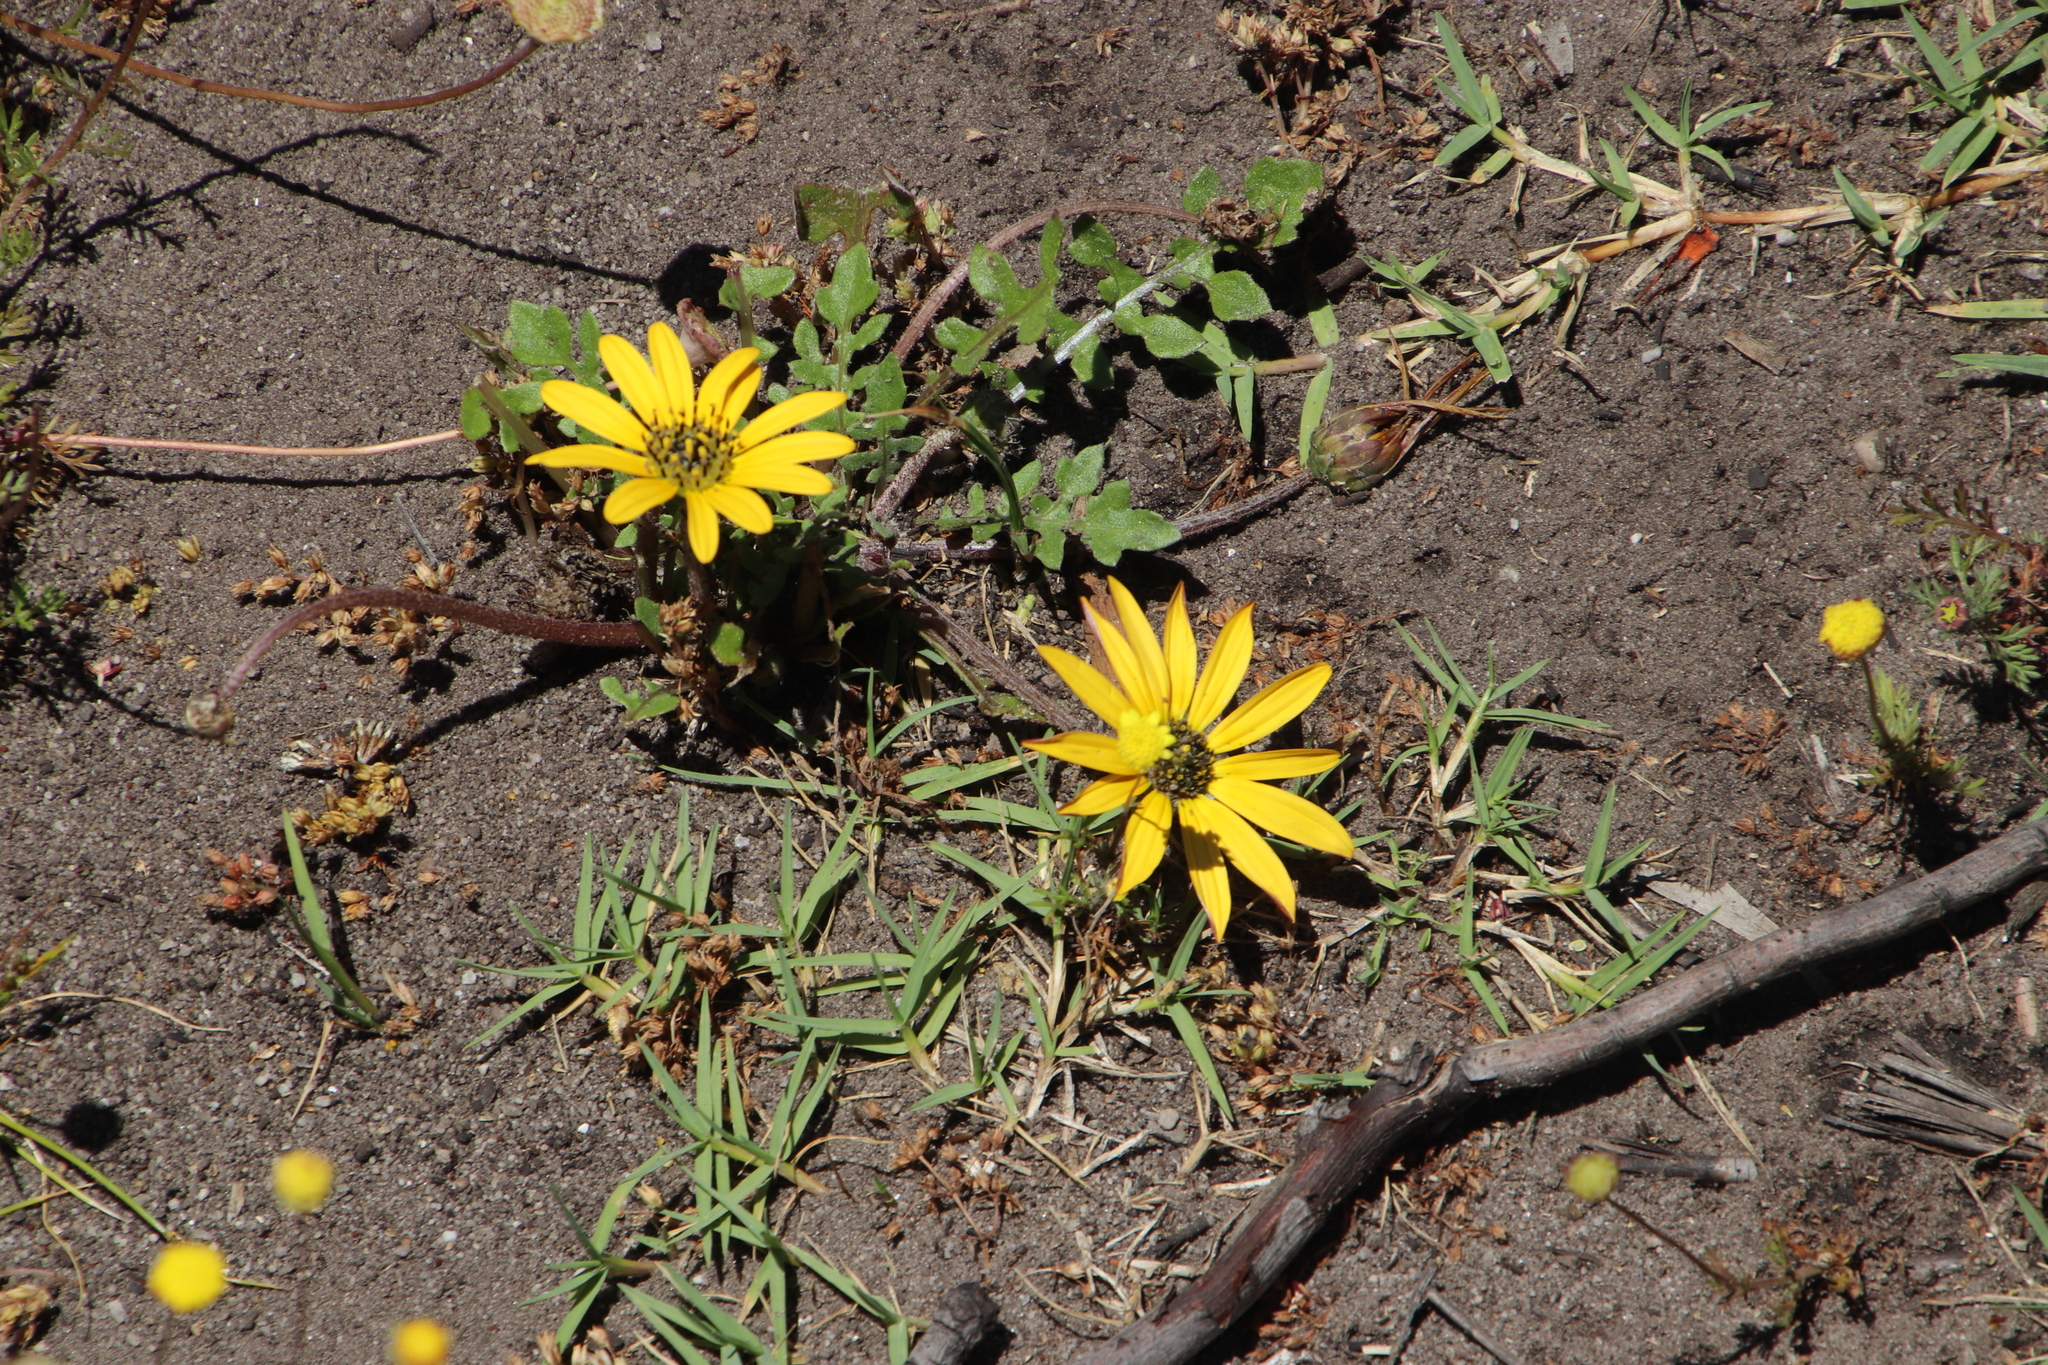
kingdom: Plantae
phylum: Tracheophyta
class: Magnoliopsida
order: Asterales
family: Asteraceae
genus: Arctotheca
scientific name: Arctotheca calendula
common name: Capeweed
